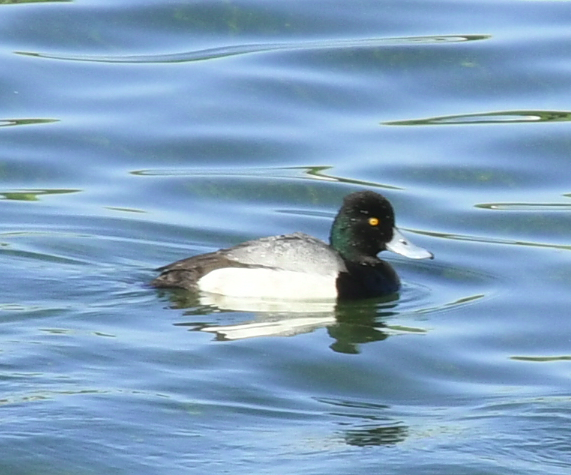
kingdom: Animalia
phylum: Chordata
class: Aves
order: Anseriformes
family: Anatidae
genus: Aythya
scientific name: Aythya affinis
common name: Lesser scaup
